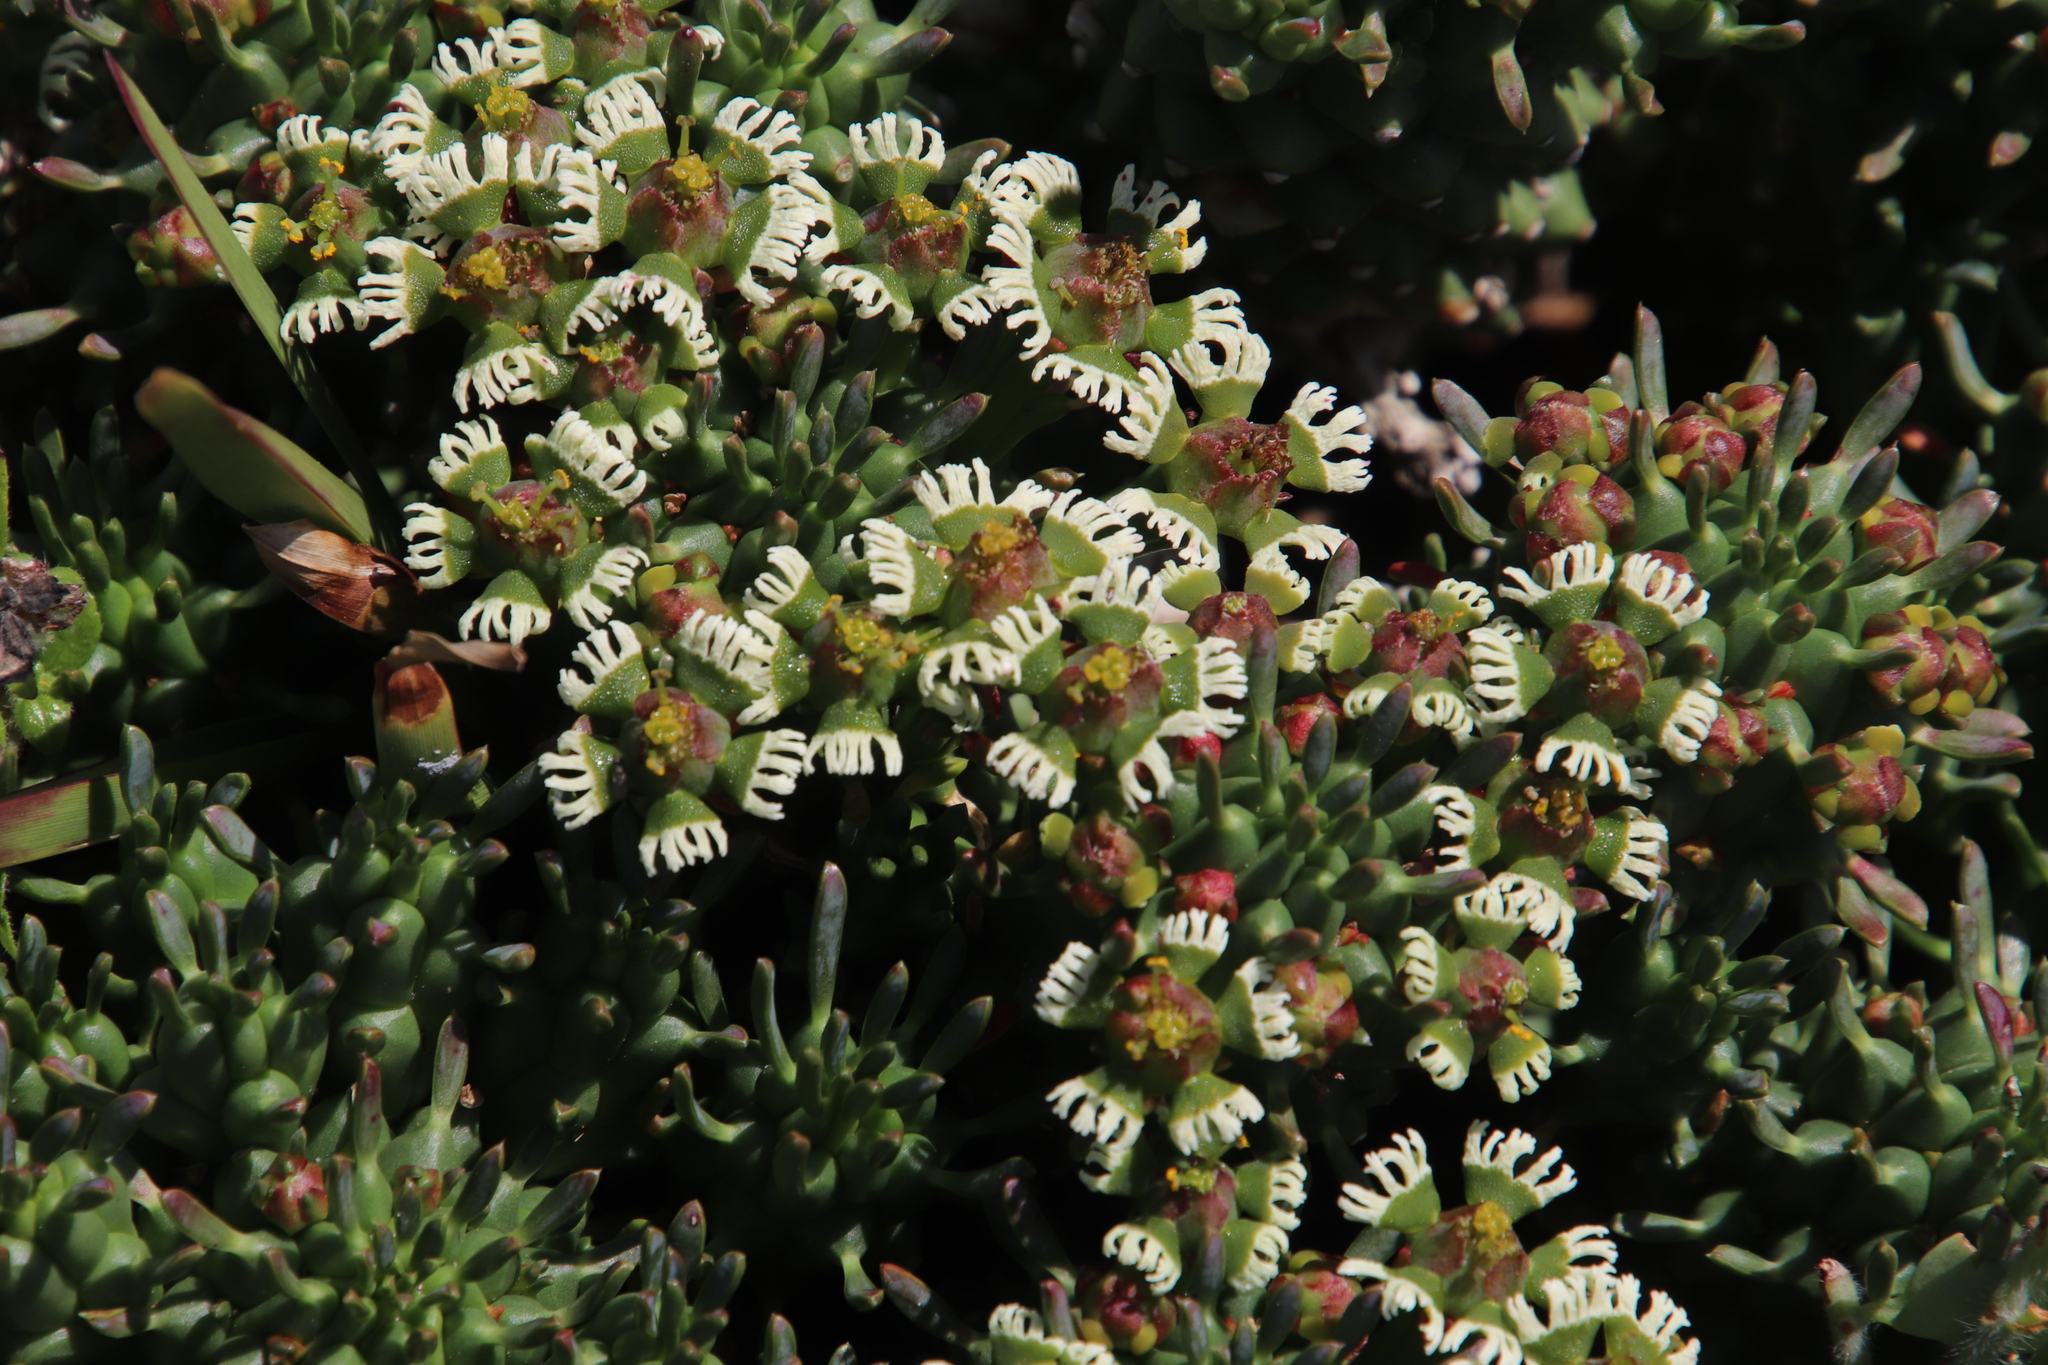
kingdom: Plantae
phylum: Tracheophyta
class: Magnoliopsida
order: Malpighiales
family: Euphorbiaceae
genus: Euphorbia
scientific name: Euphorbia caput-medusae
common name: Medusa's-head
